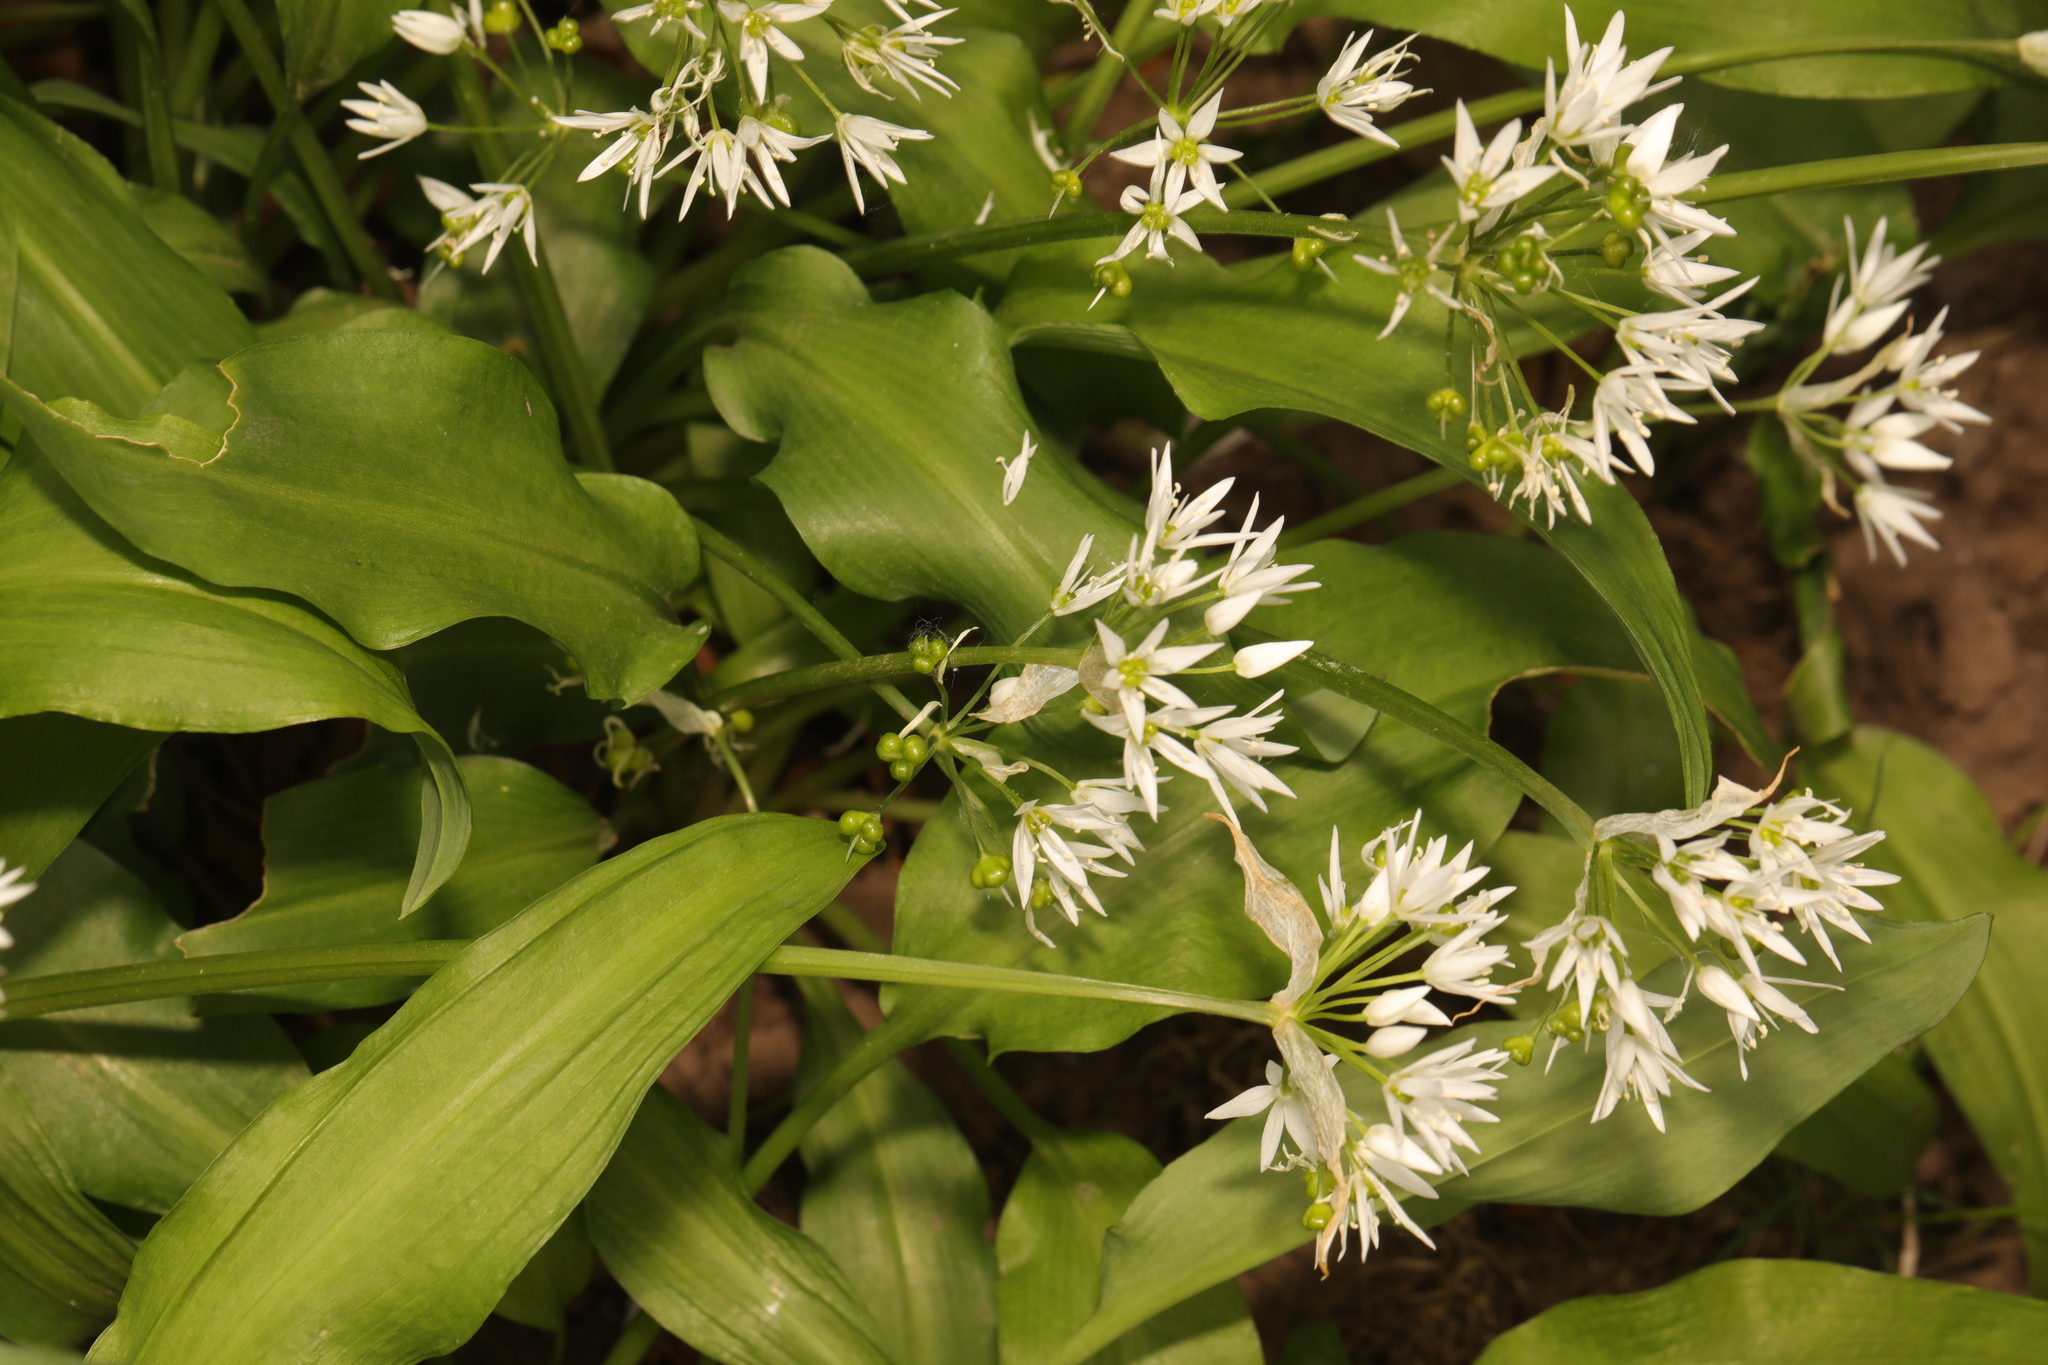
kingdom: Plantae
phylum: Tracheophyta
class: Liliopsida
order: Asparagales
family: Amaryllidaceae
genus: Allium
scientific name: Allium ursinum
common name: Ramsons
